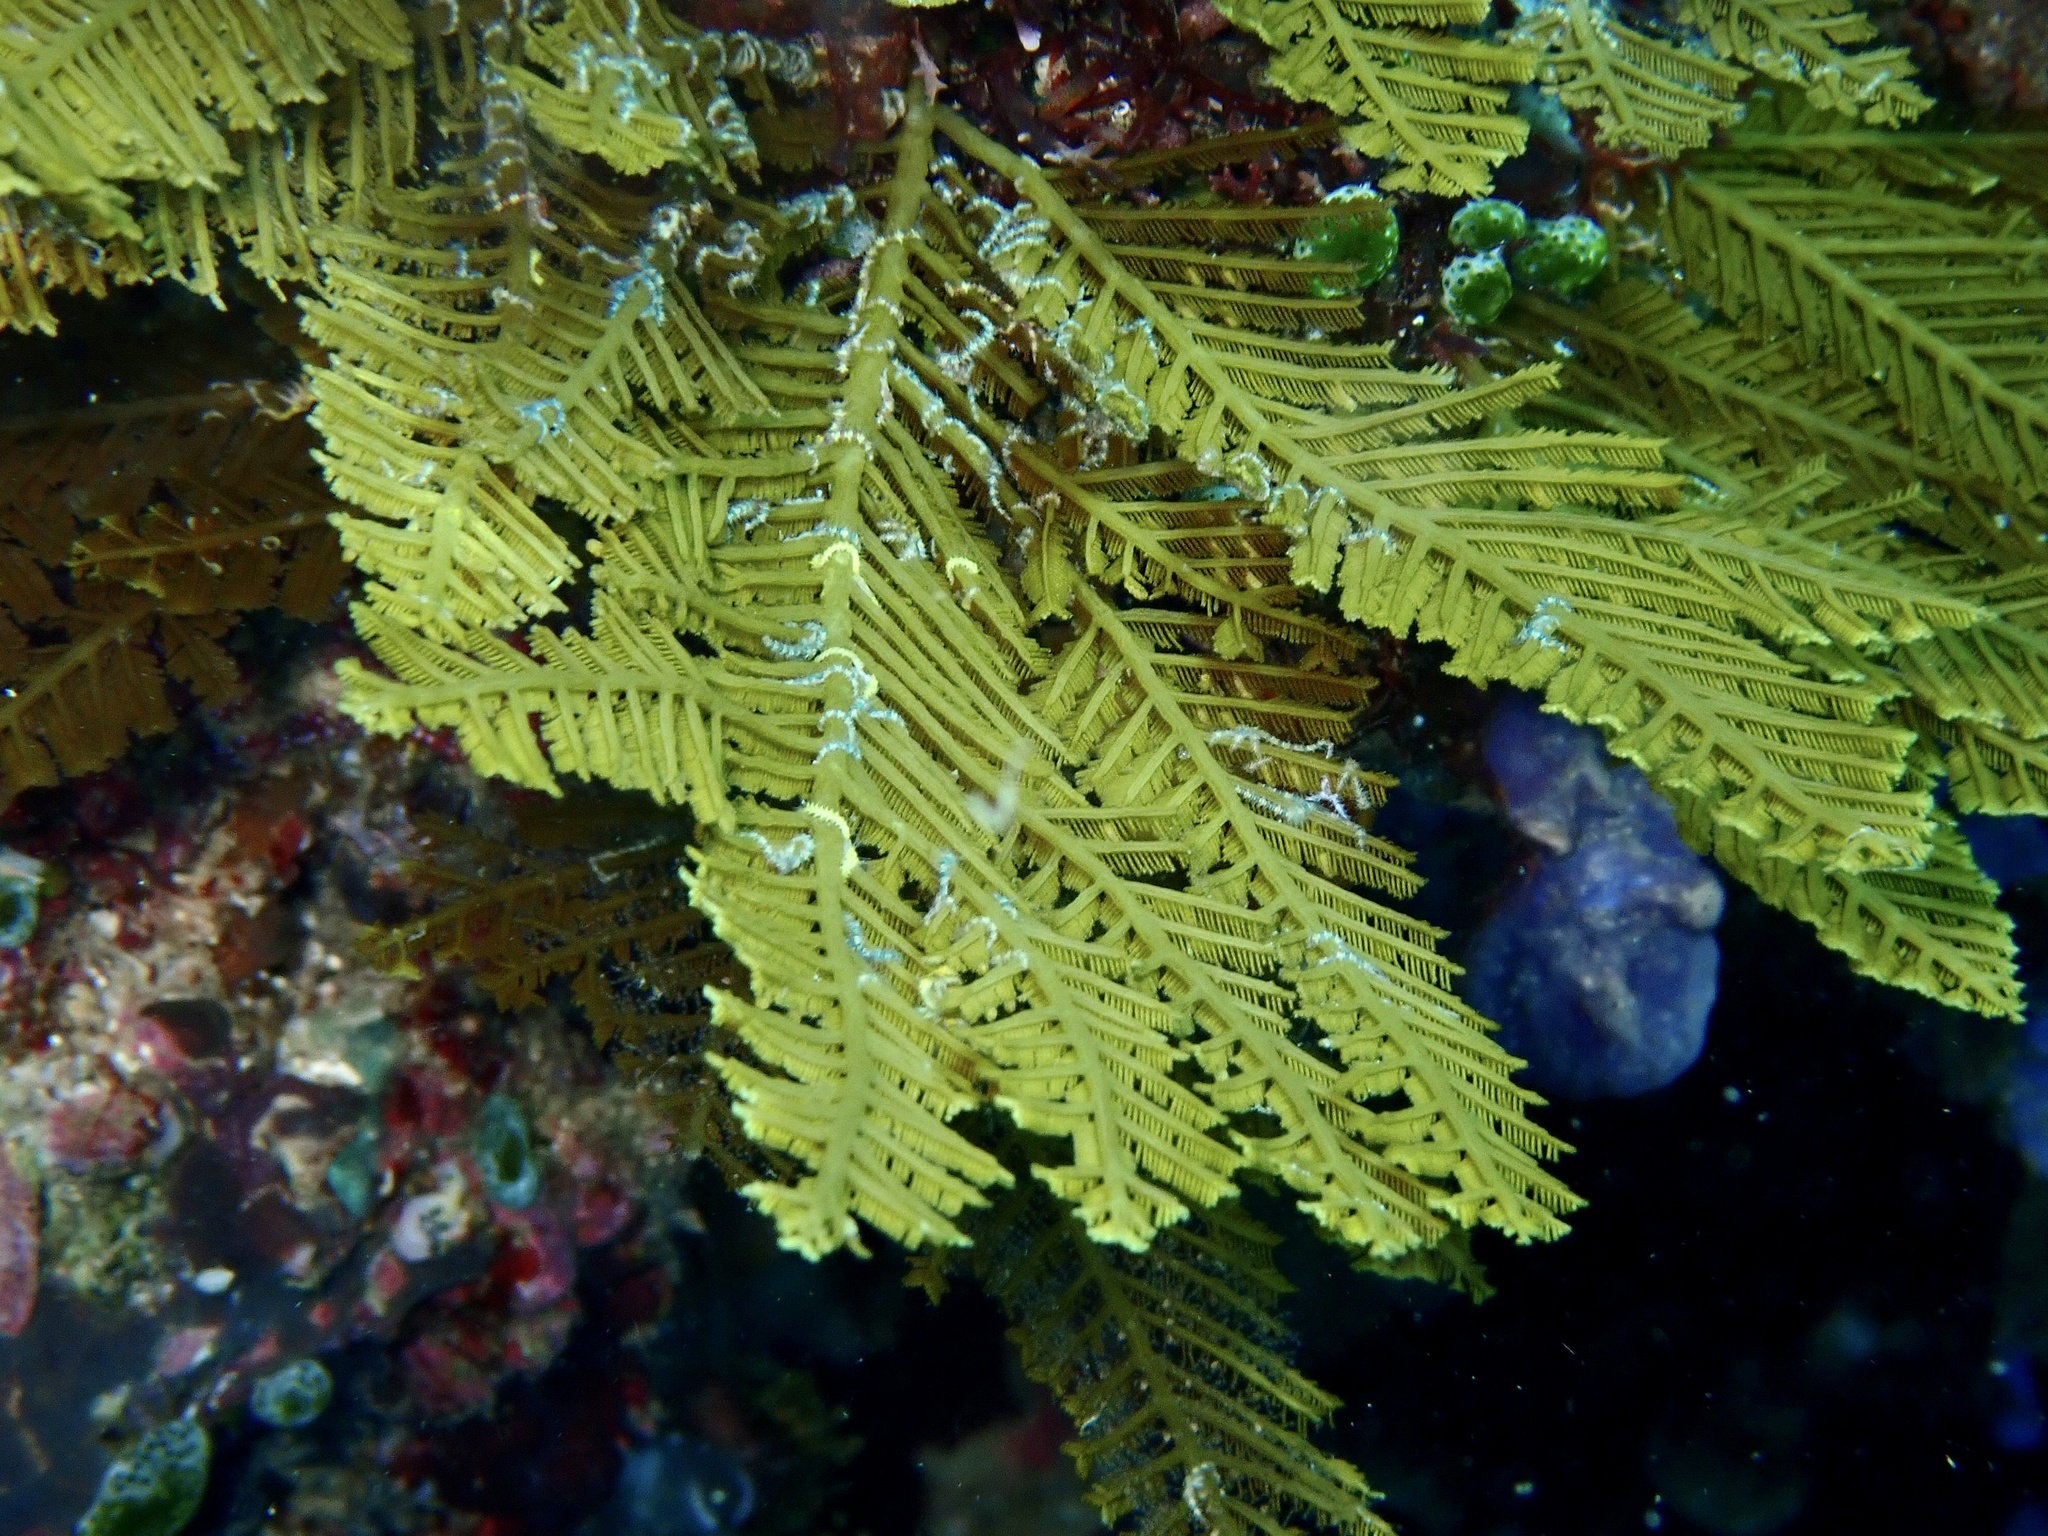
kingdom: Animalia
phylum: Cnidaria
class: Hydrozoa
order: Leptothecata
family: Aglaopheniidae
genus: Pachyrhynchia
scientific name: Pachyrhynchia cuppressina
